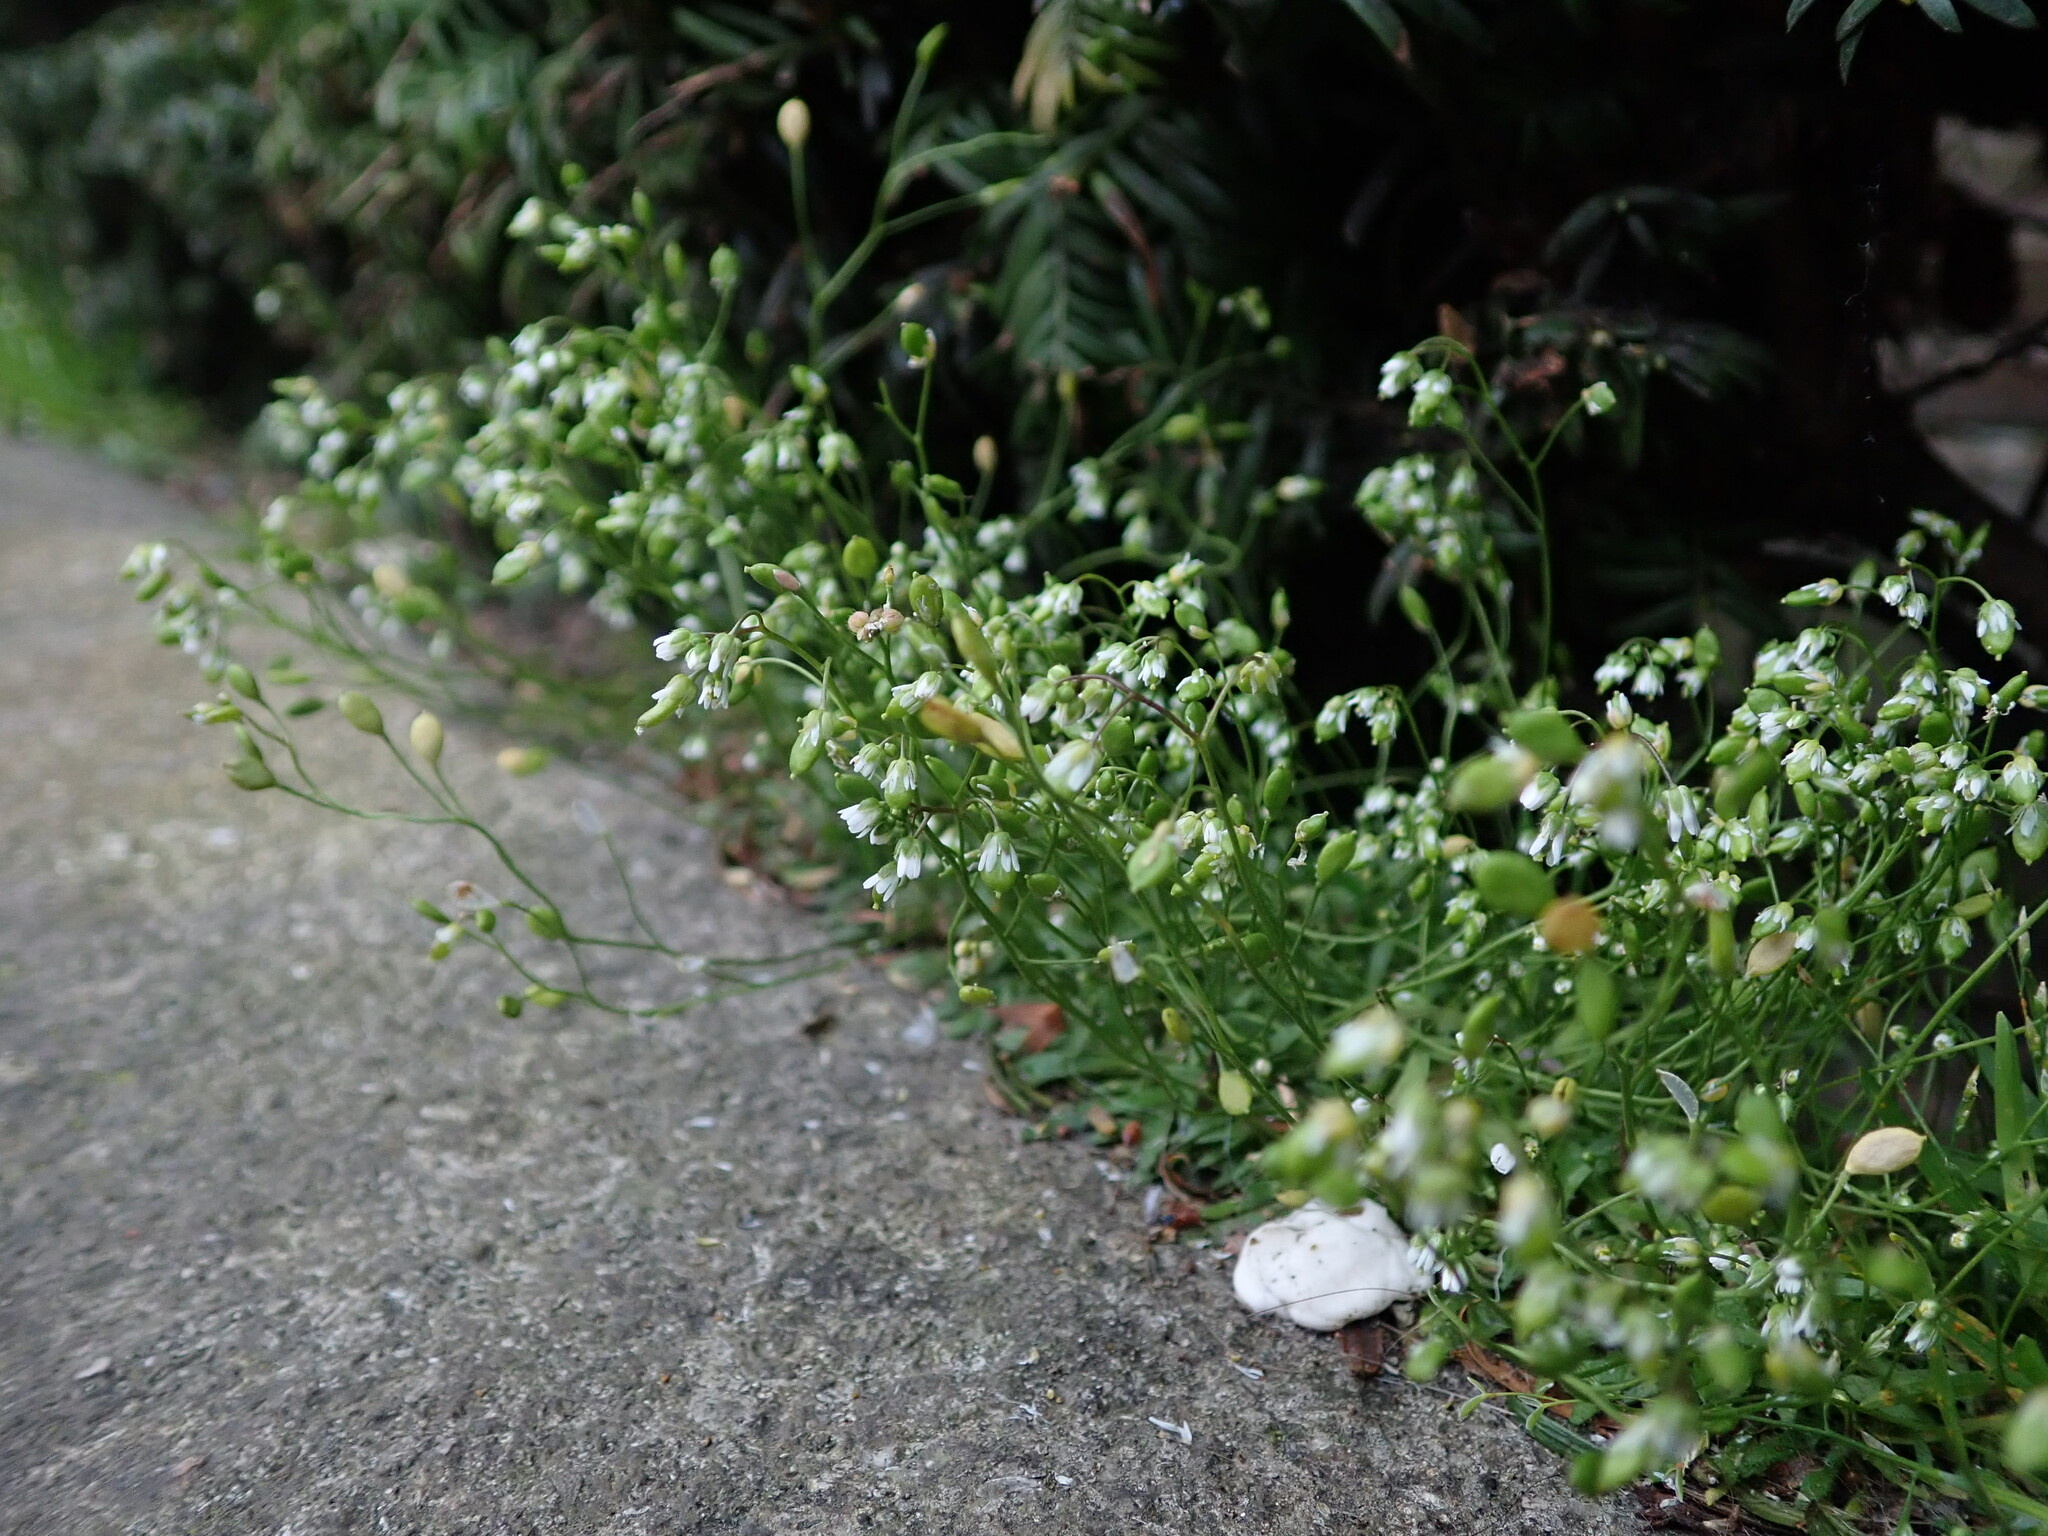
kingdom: Plantae
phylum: Tracheophyta
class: Magnoliopsida
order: Brassicales
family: Brassicaceae
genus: Draba
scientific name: Draba verna
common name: Spring draba
